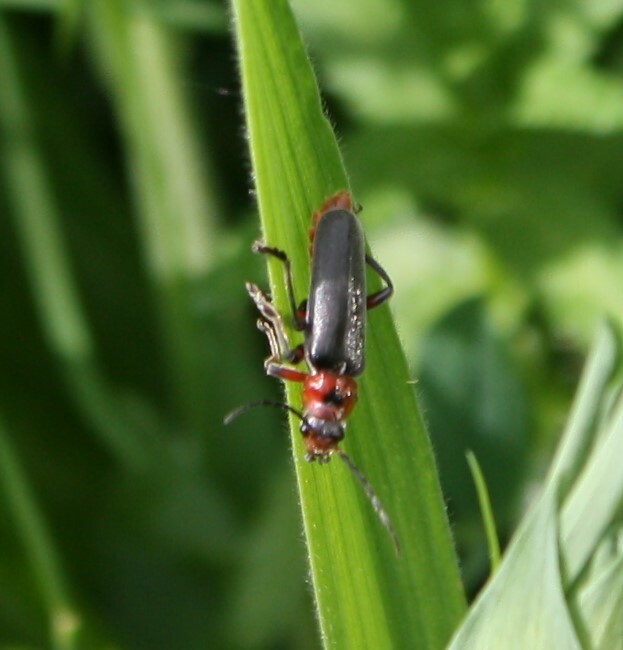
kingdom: Animalia
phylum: Arthropoda
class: Insecta
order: Coleoptera
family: Cantharidae
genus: Cantharis
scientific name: Cantharis rustica
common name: Soldier beetle
